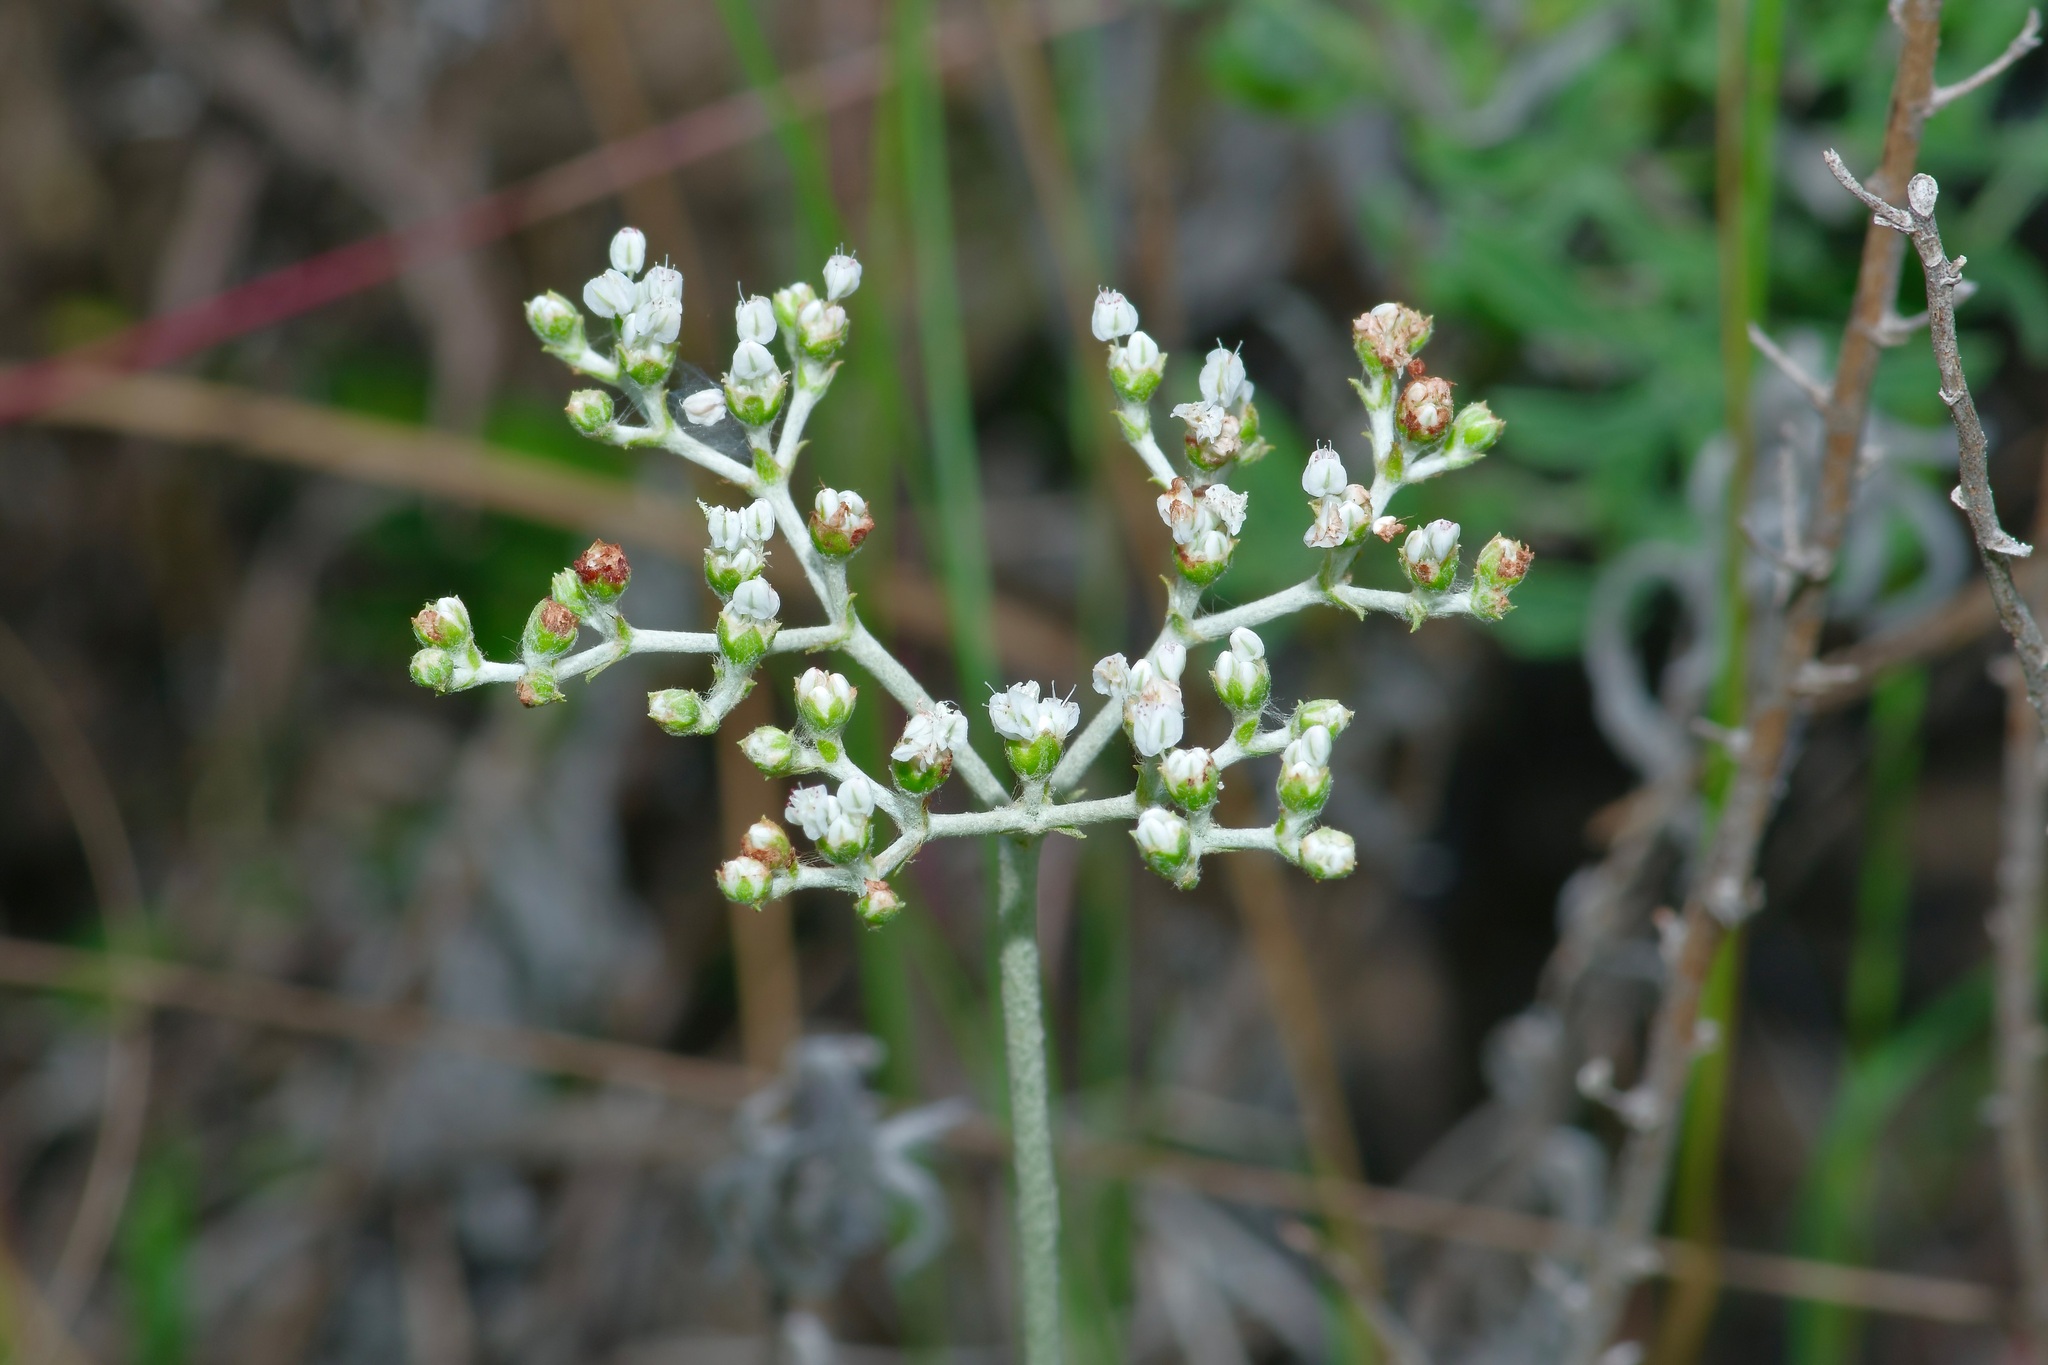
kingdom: Plantae
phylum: Tracheophyta
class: Magnoliopsida
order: Caryophyllales
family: Polygonaceae
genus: Eriogonum
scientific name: Eriogonum multiflorum
